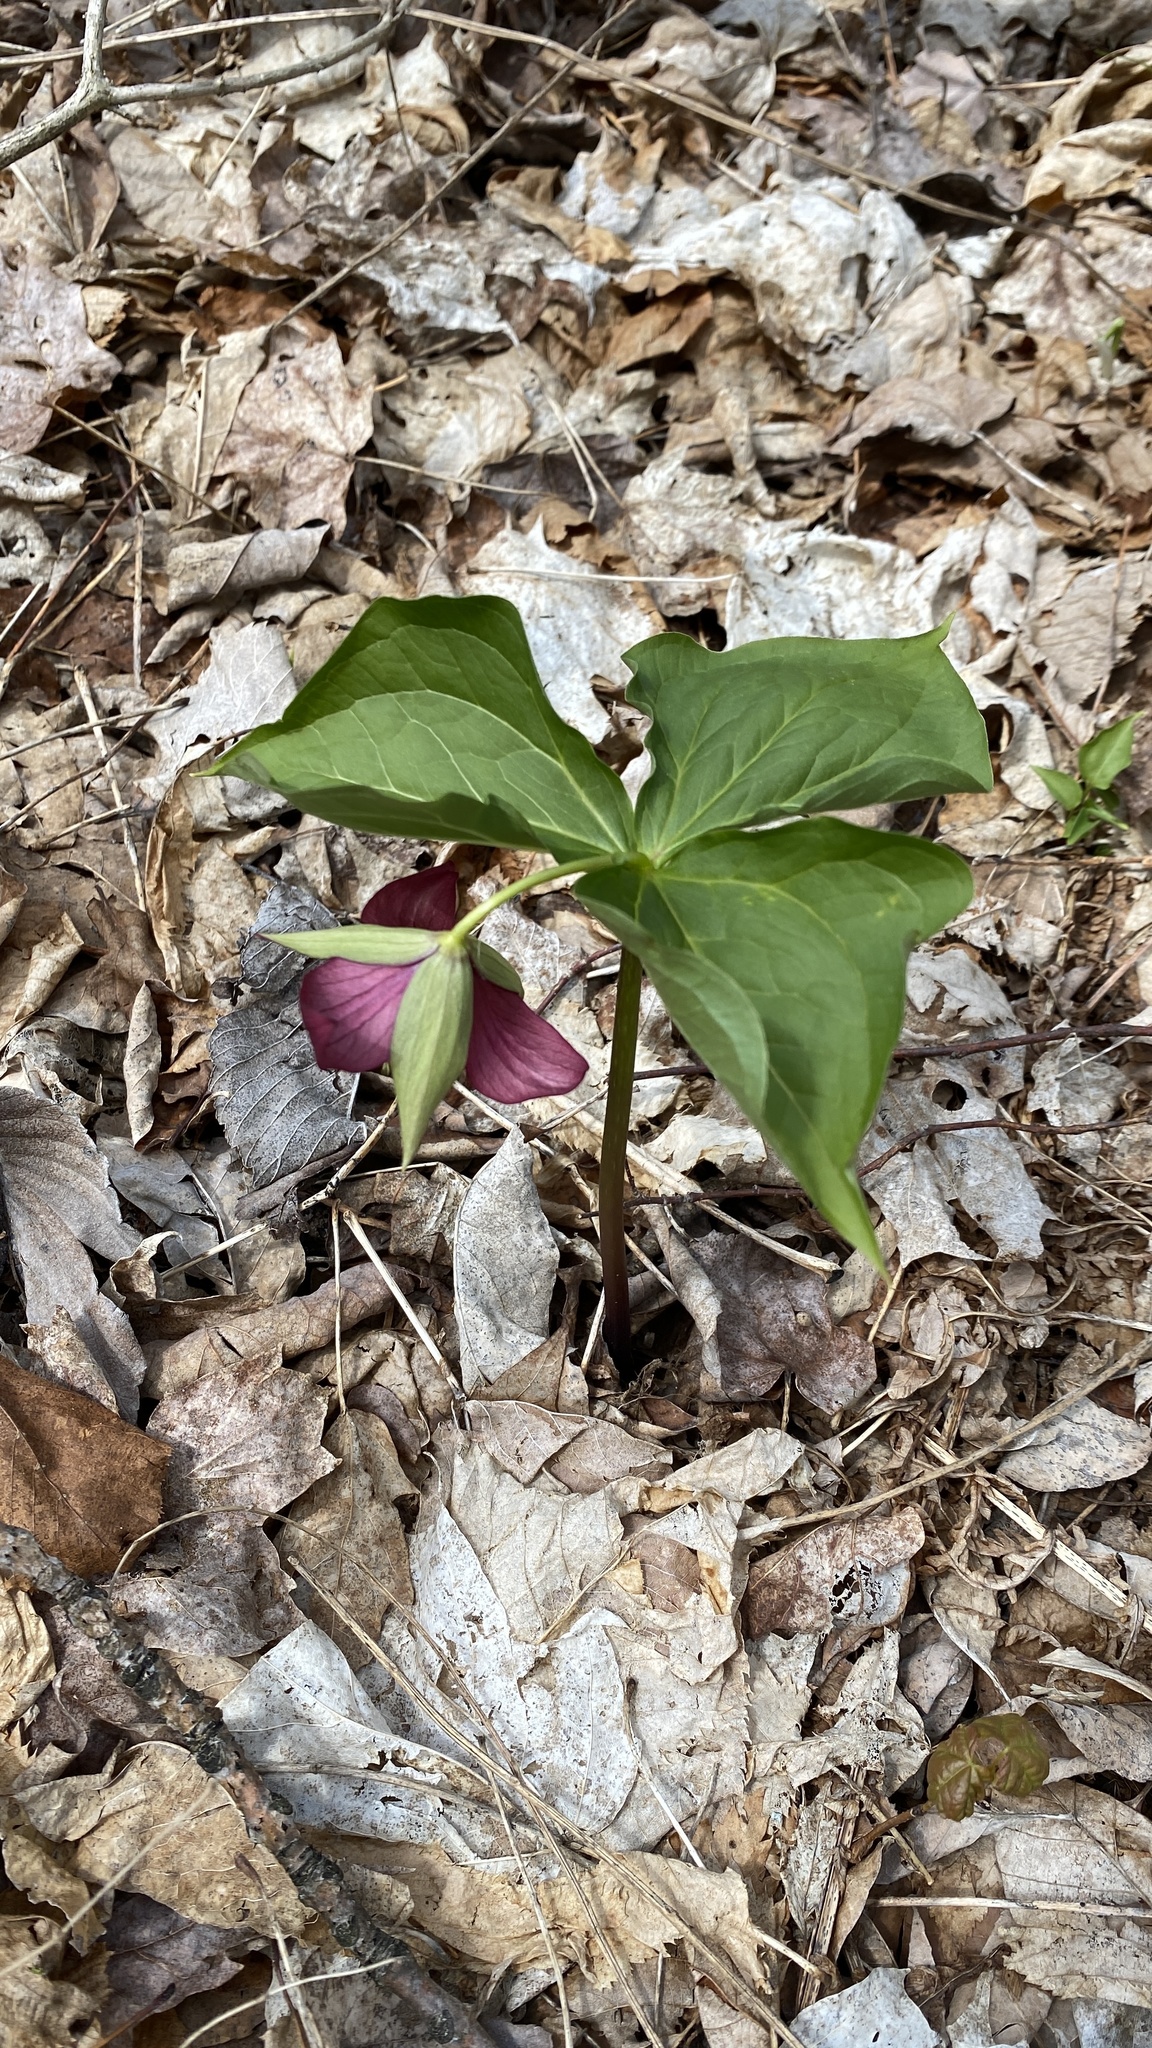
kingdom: Plantae
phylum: Tracheophyta
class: Liliopsida
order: Liliales
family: Melanthiaceae
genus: Trillium
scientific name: Trillium erectum
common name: Purple trillium
